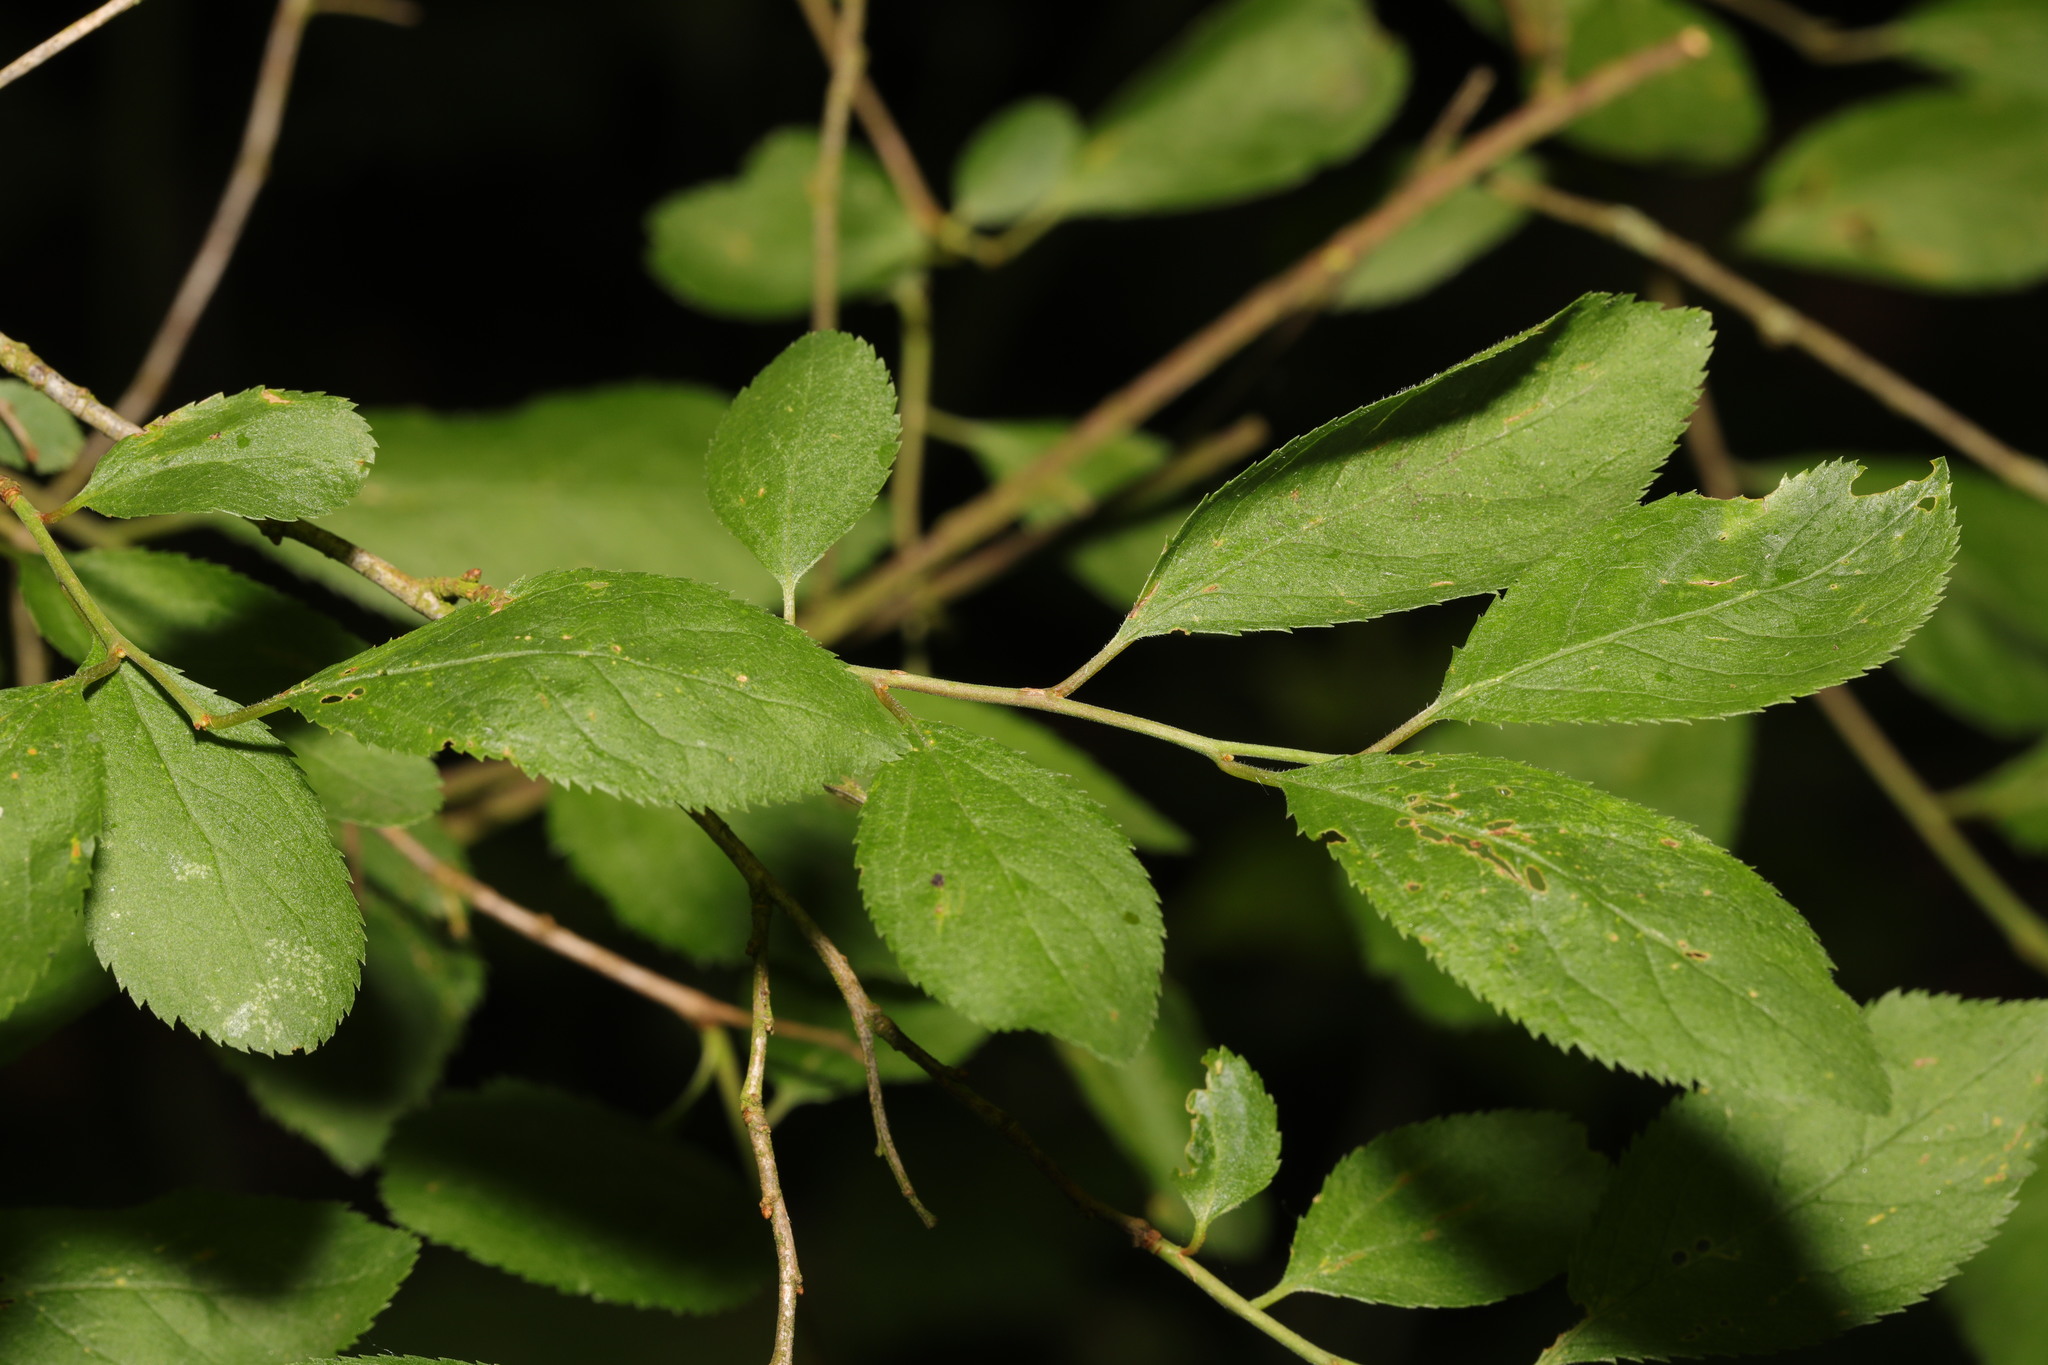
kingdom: Plantae
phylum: Tracheophyta
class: Magnoliopsida
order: Rosales
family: Rosaceae
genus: Prunus
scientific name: Prunus spinosa
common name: Blackthorn
